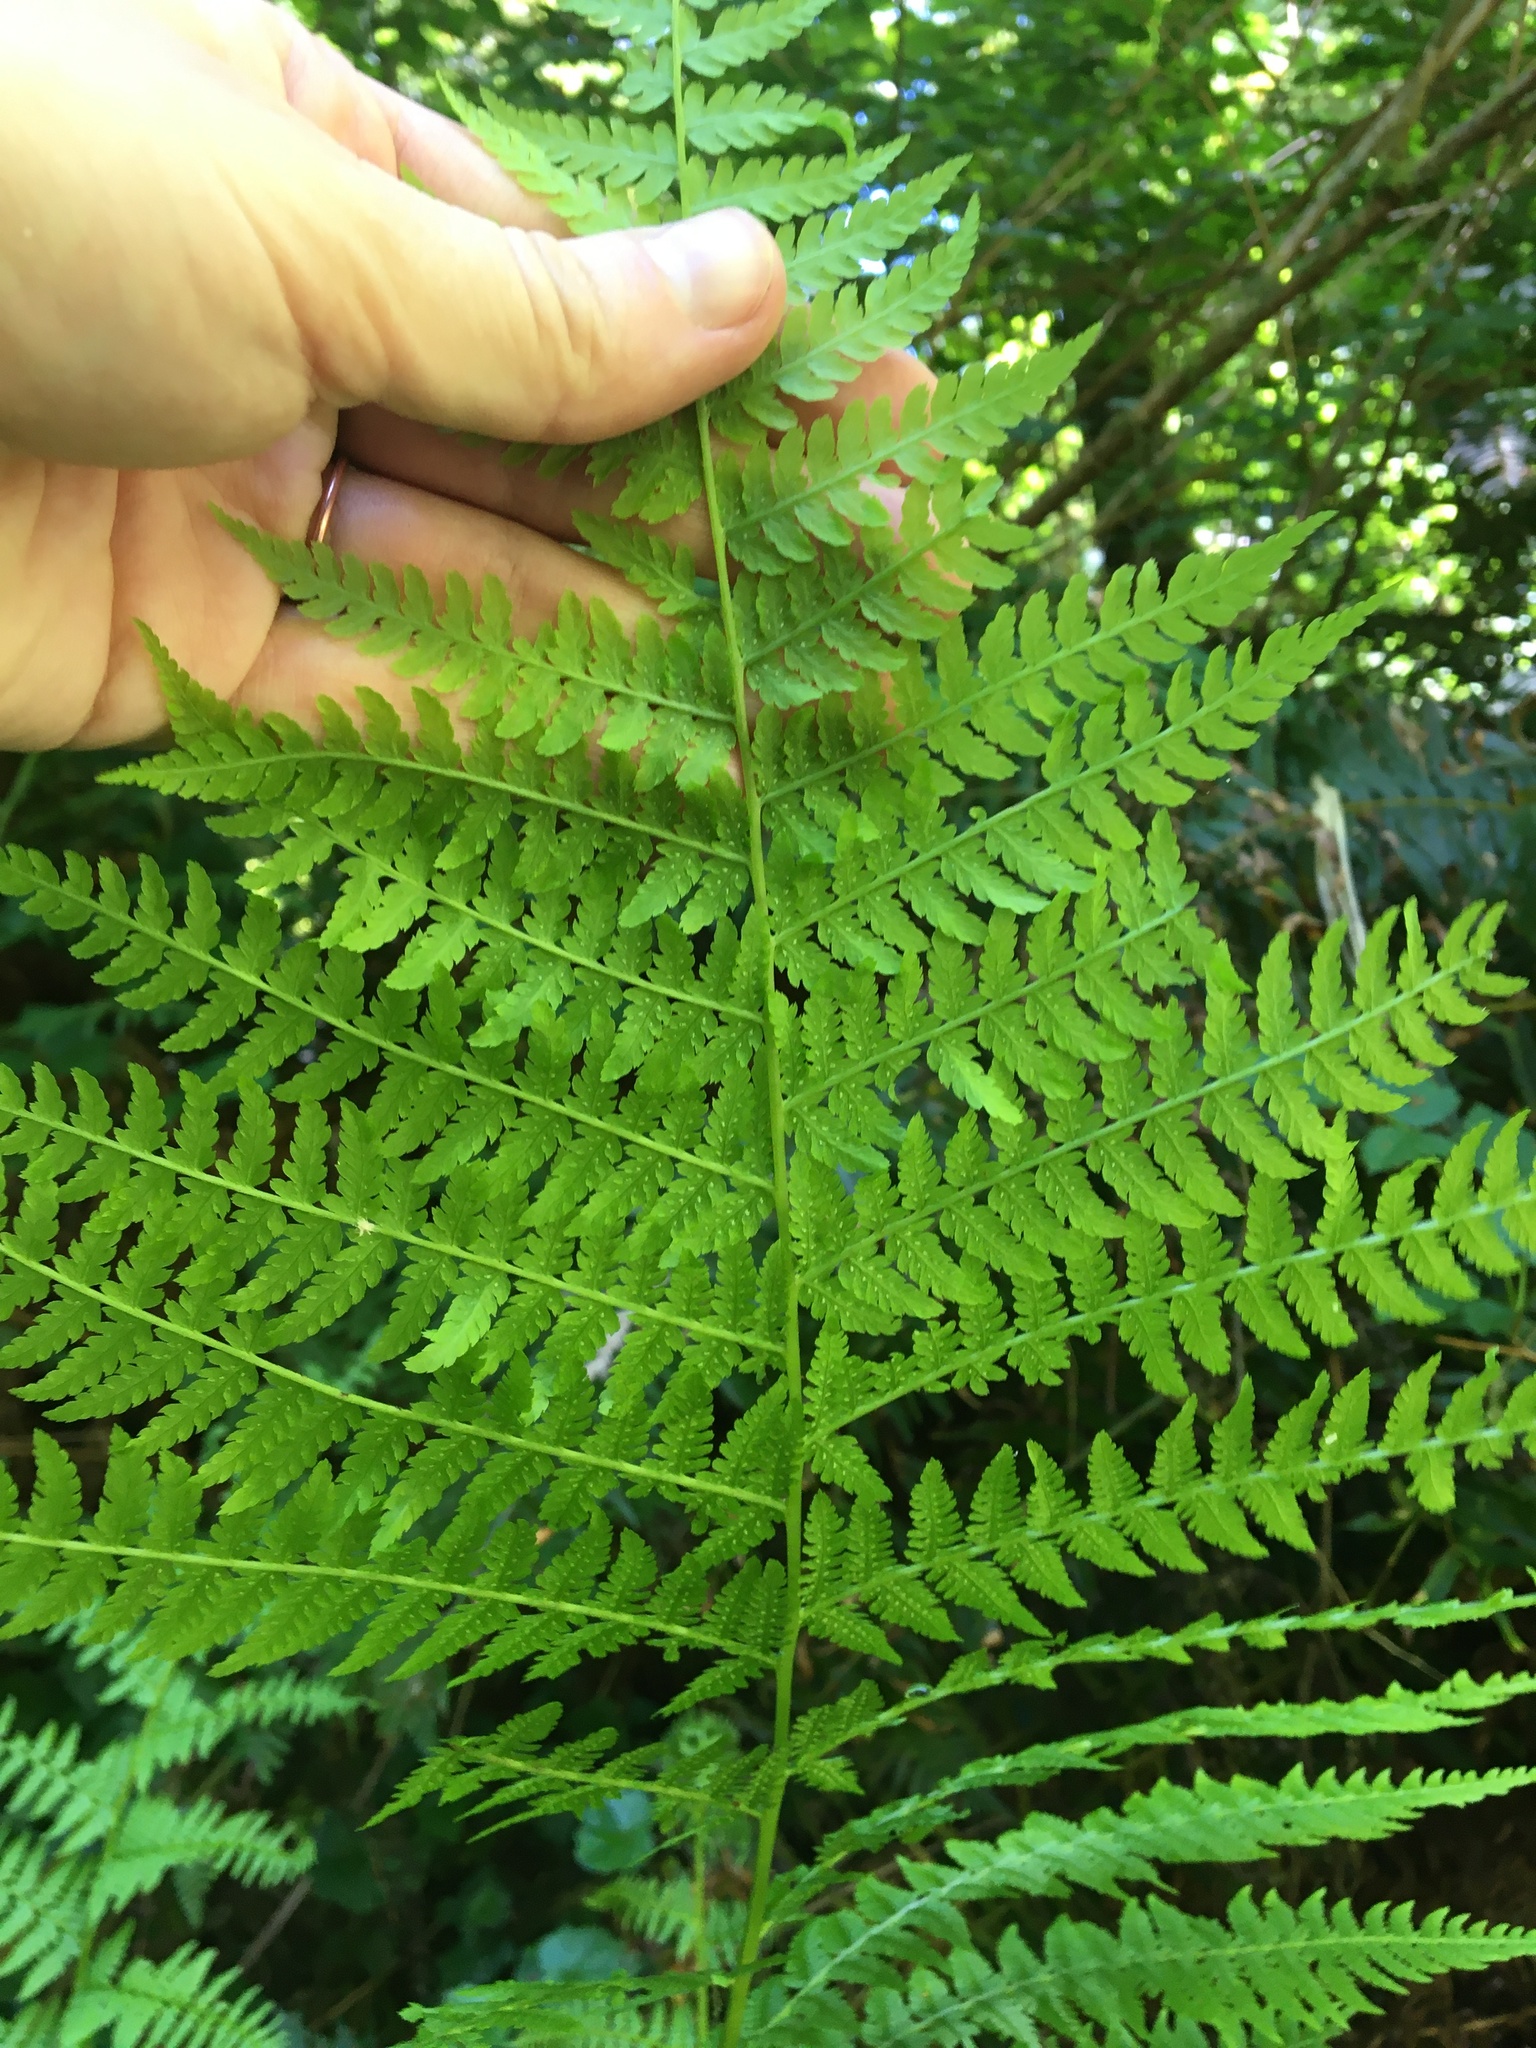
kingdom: Plantae
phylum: Tracheophyta
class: Polypodiopsida
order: Polypodiales
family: Athyriaceae
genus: Athyrium
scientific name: Athyrium cyclosorum
